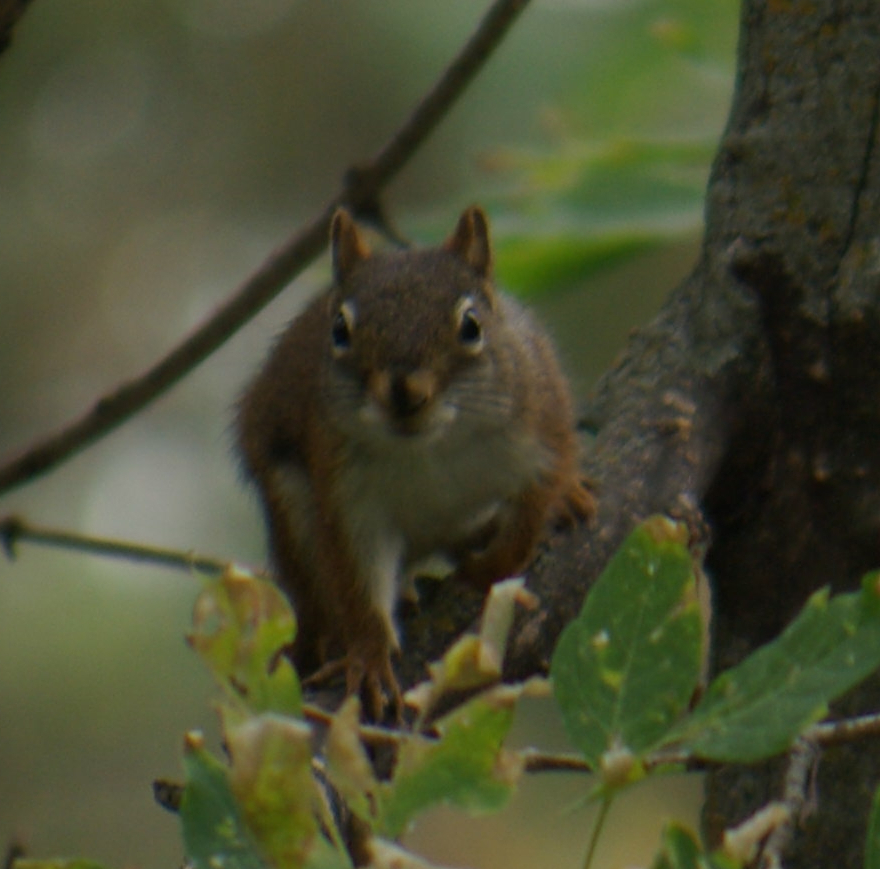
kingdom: Animalia
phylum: Chordata
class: Mammalia
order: Rodentia
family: Sciuridae
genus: Tamiasciurus
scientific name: Tamiasciurus hudsonicus
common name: Red squirrel
